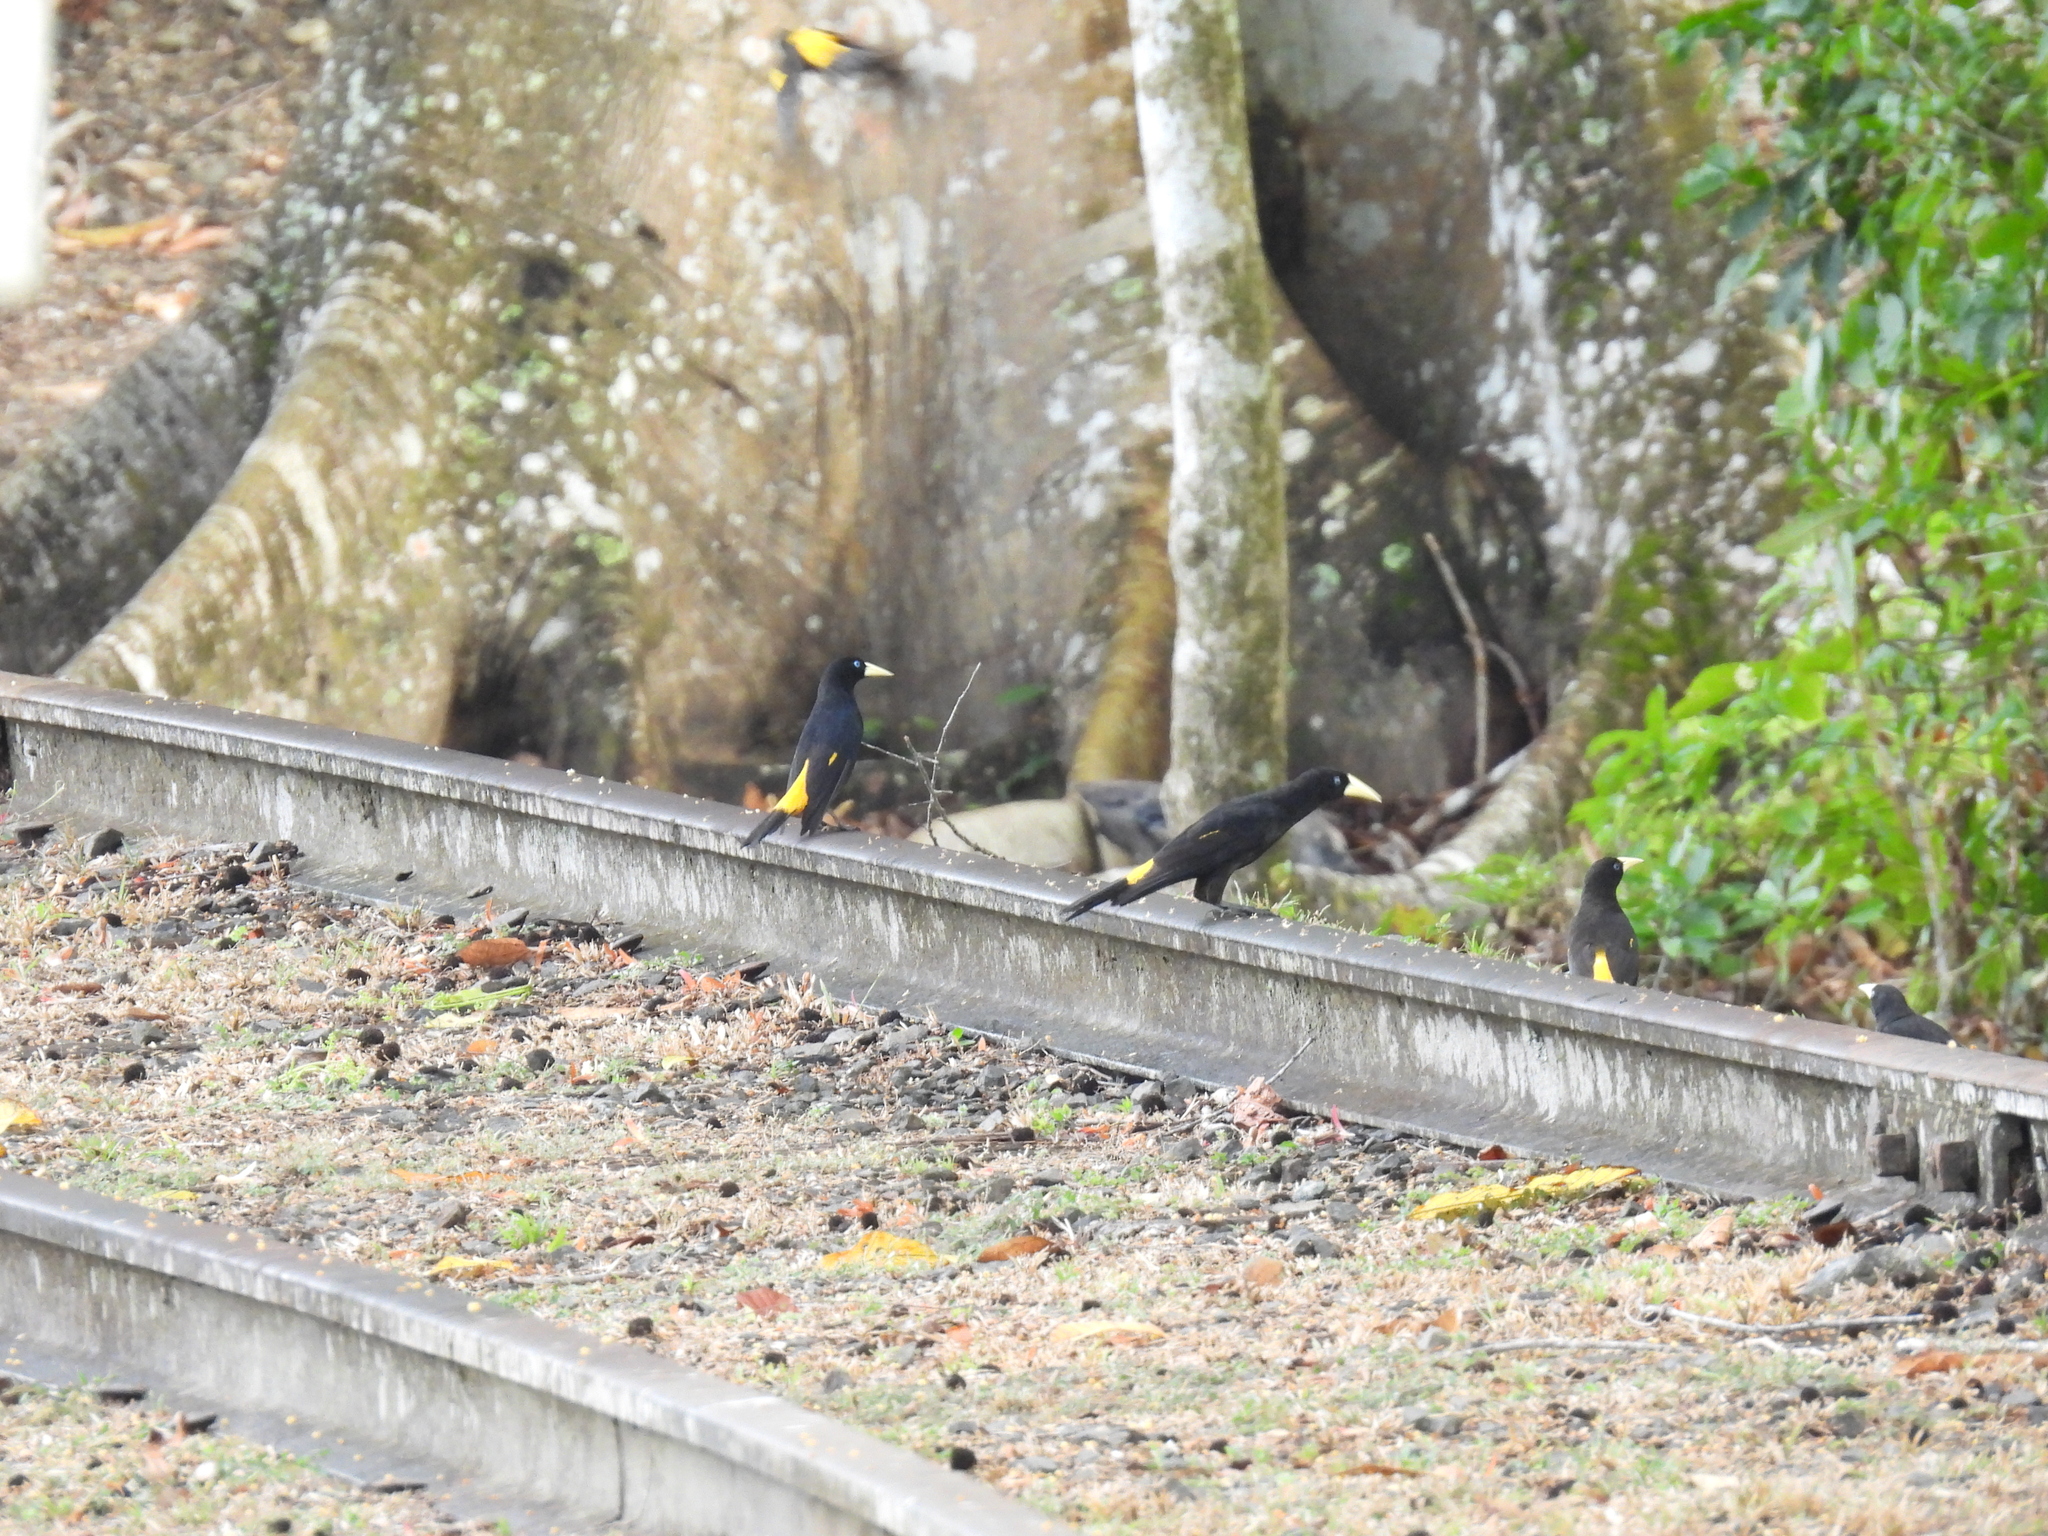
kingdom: Animalia
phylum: Chordata
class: Aves
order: Passeriformes
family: Icteridae
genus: Cacicus
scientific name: Cacicus cela
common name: Yellow-rumped cacique
